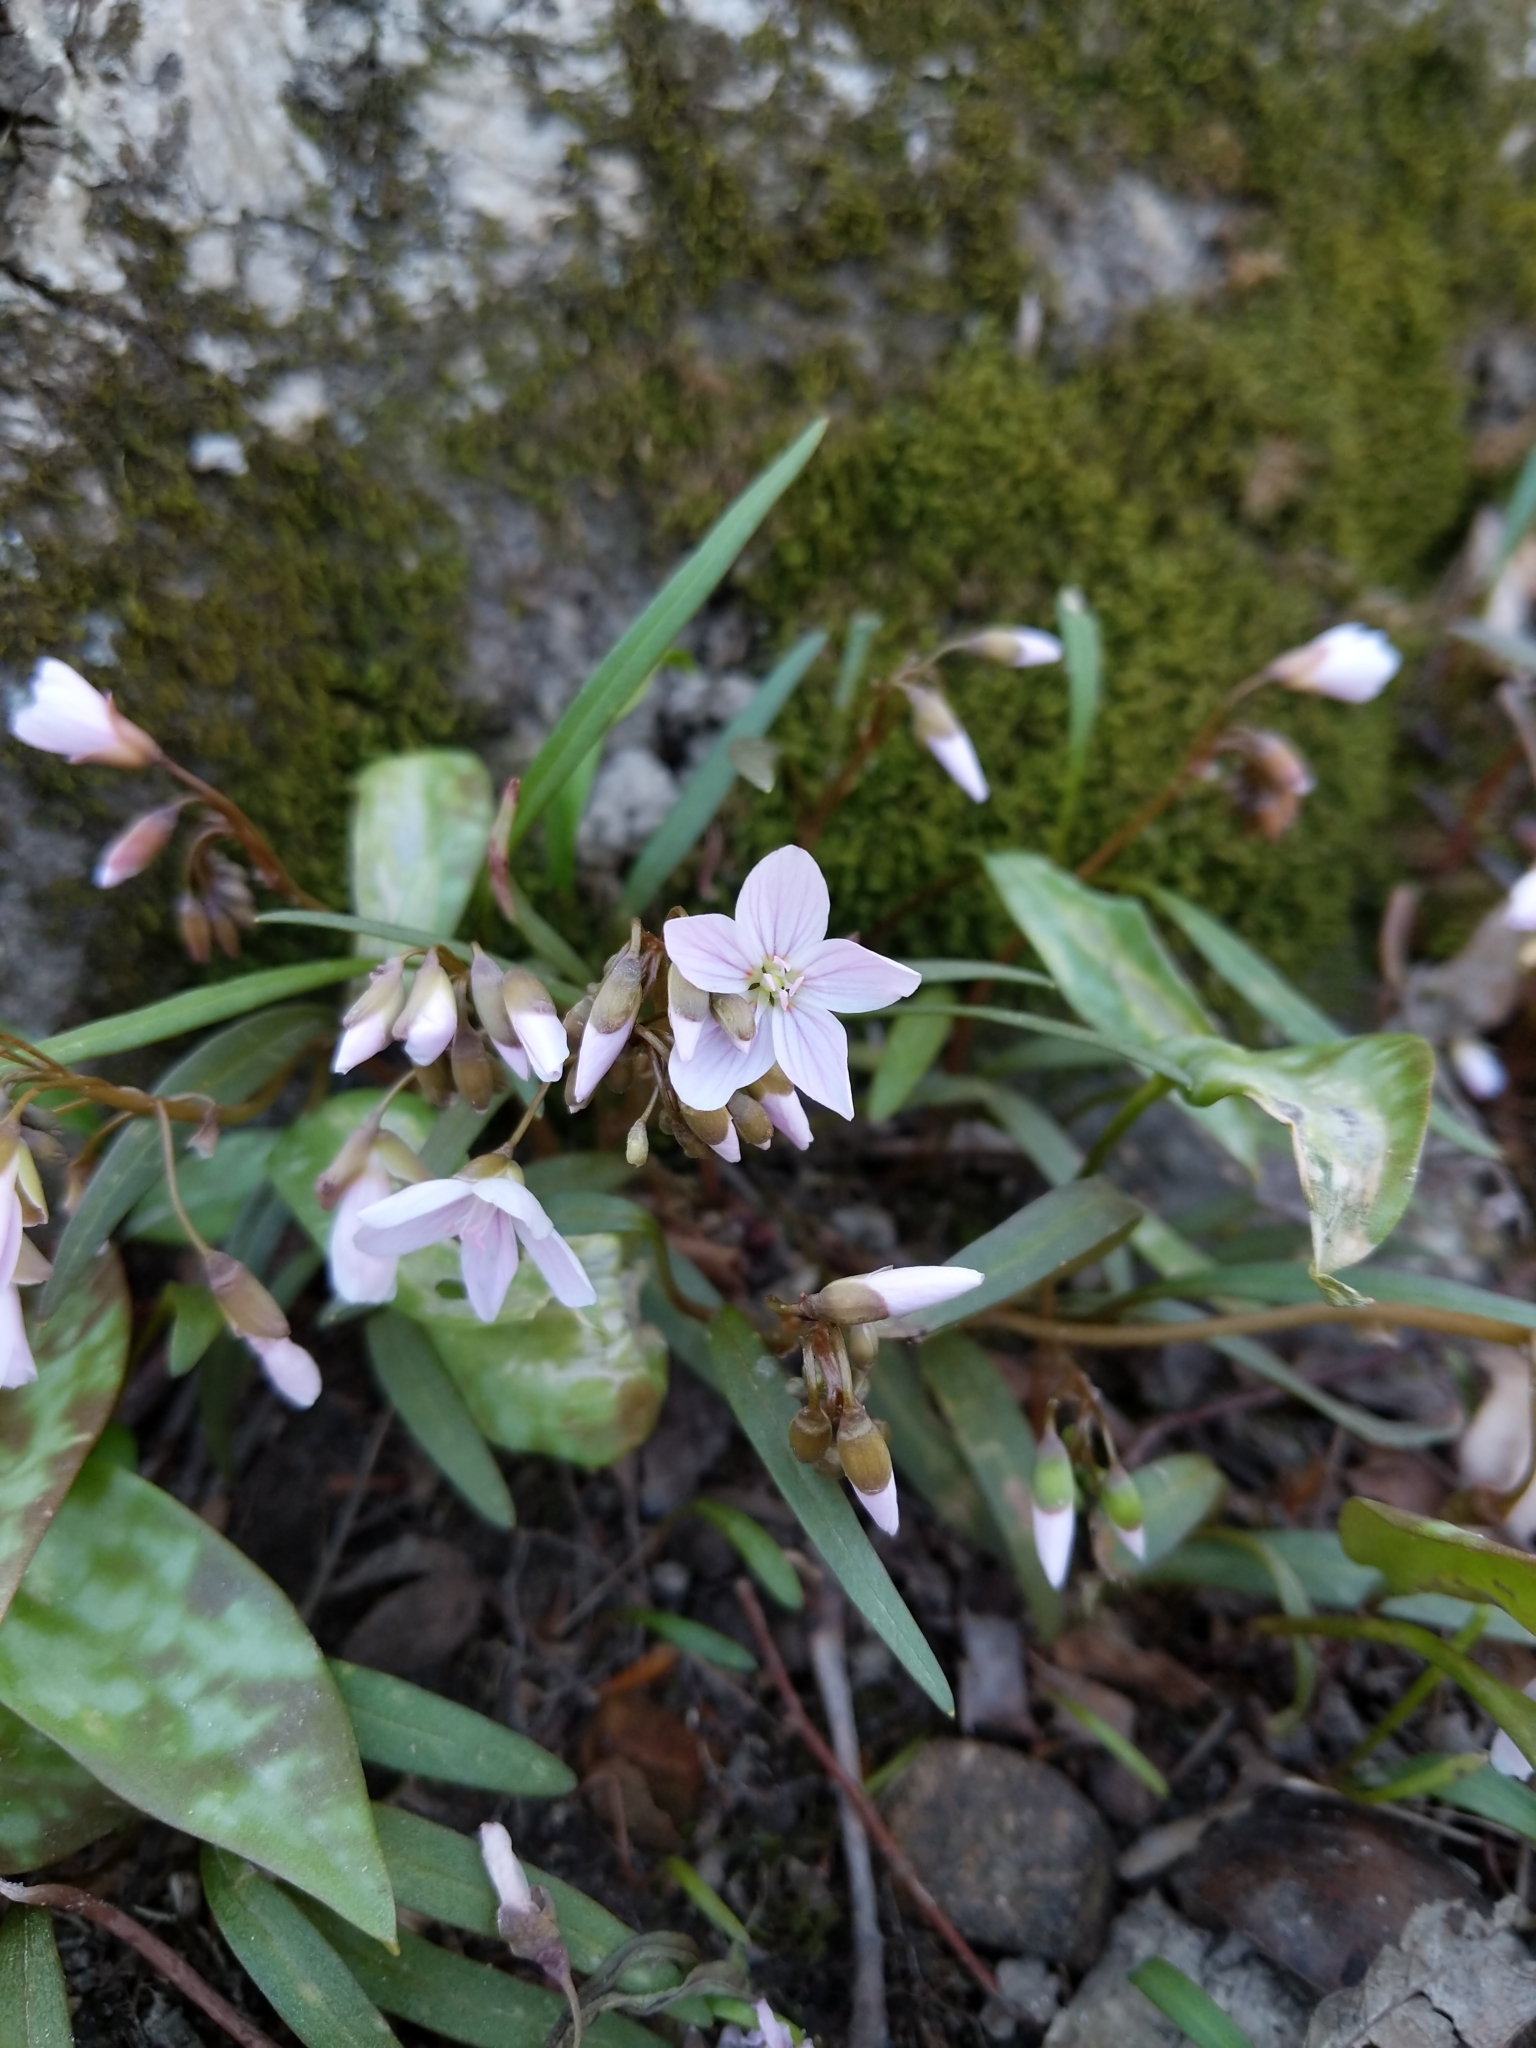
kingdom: Plantae
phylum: Tracheophyta
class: Magnoliopsida
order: Caryophyllales
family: Montiaceae
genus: Claytonia
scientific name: Claytonia virginica
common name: Virginia springbeauty
